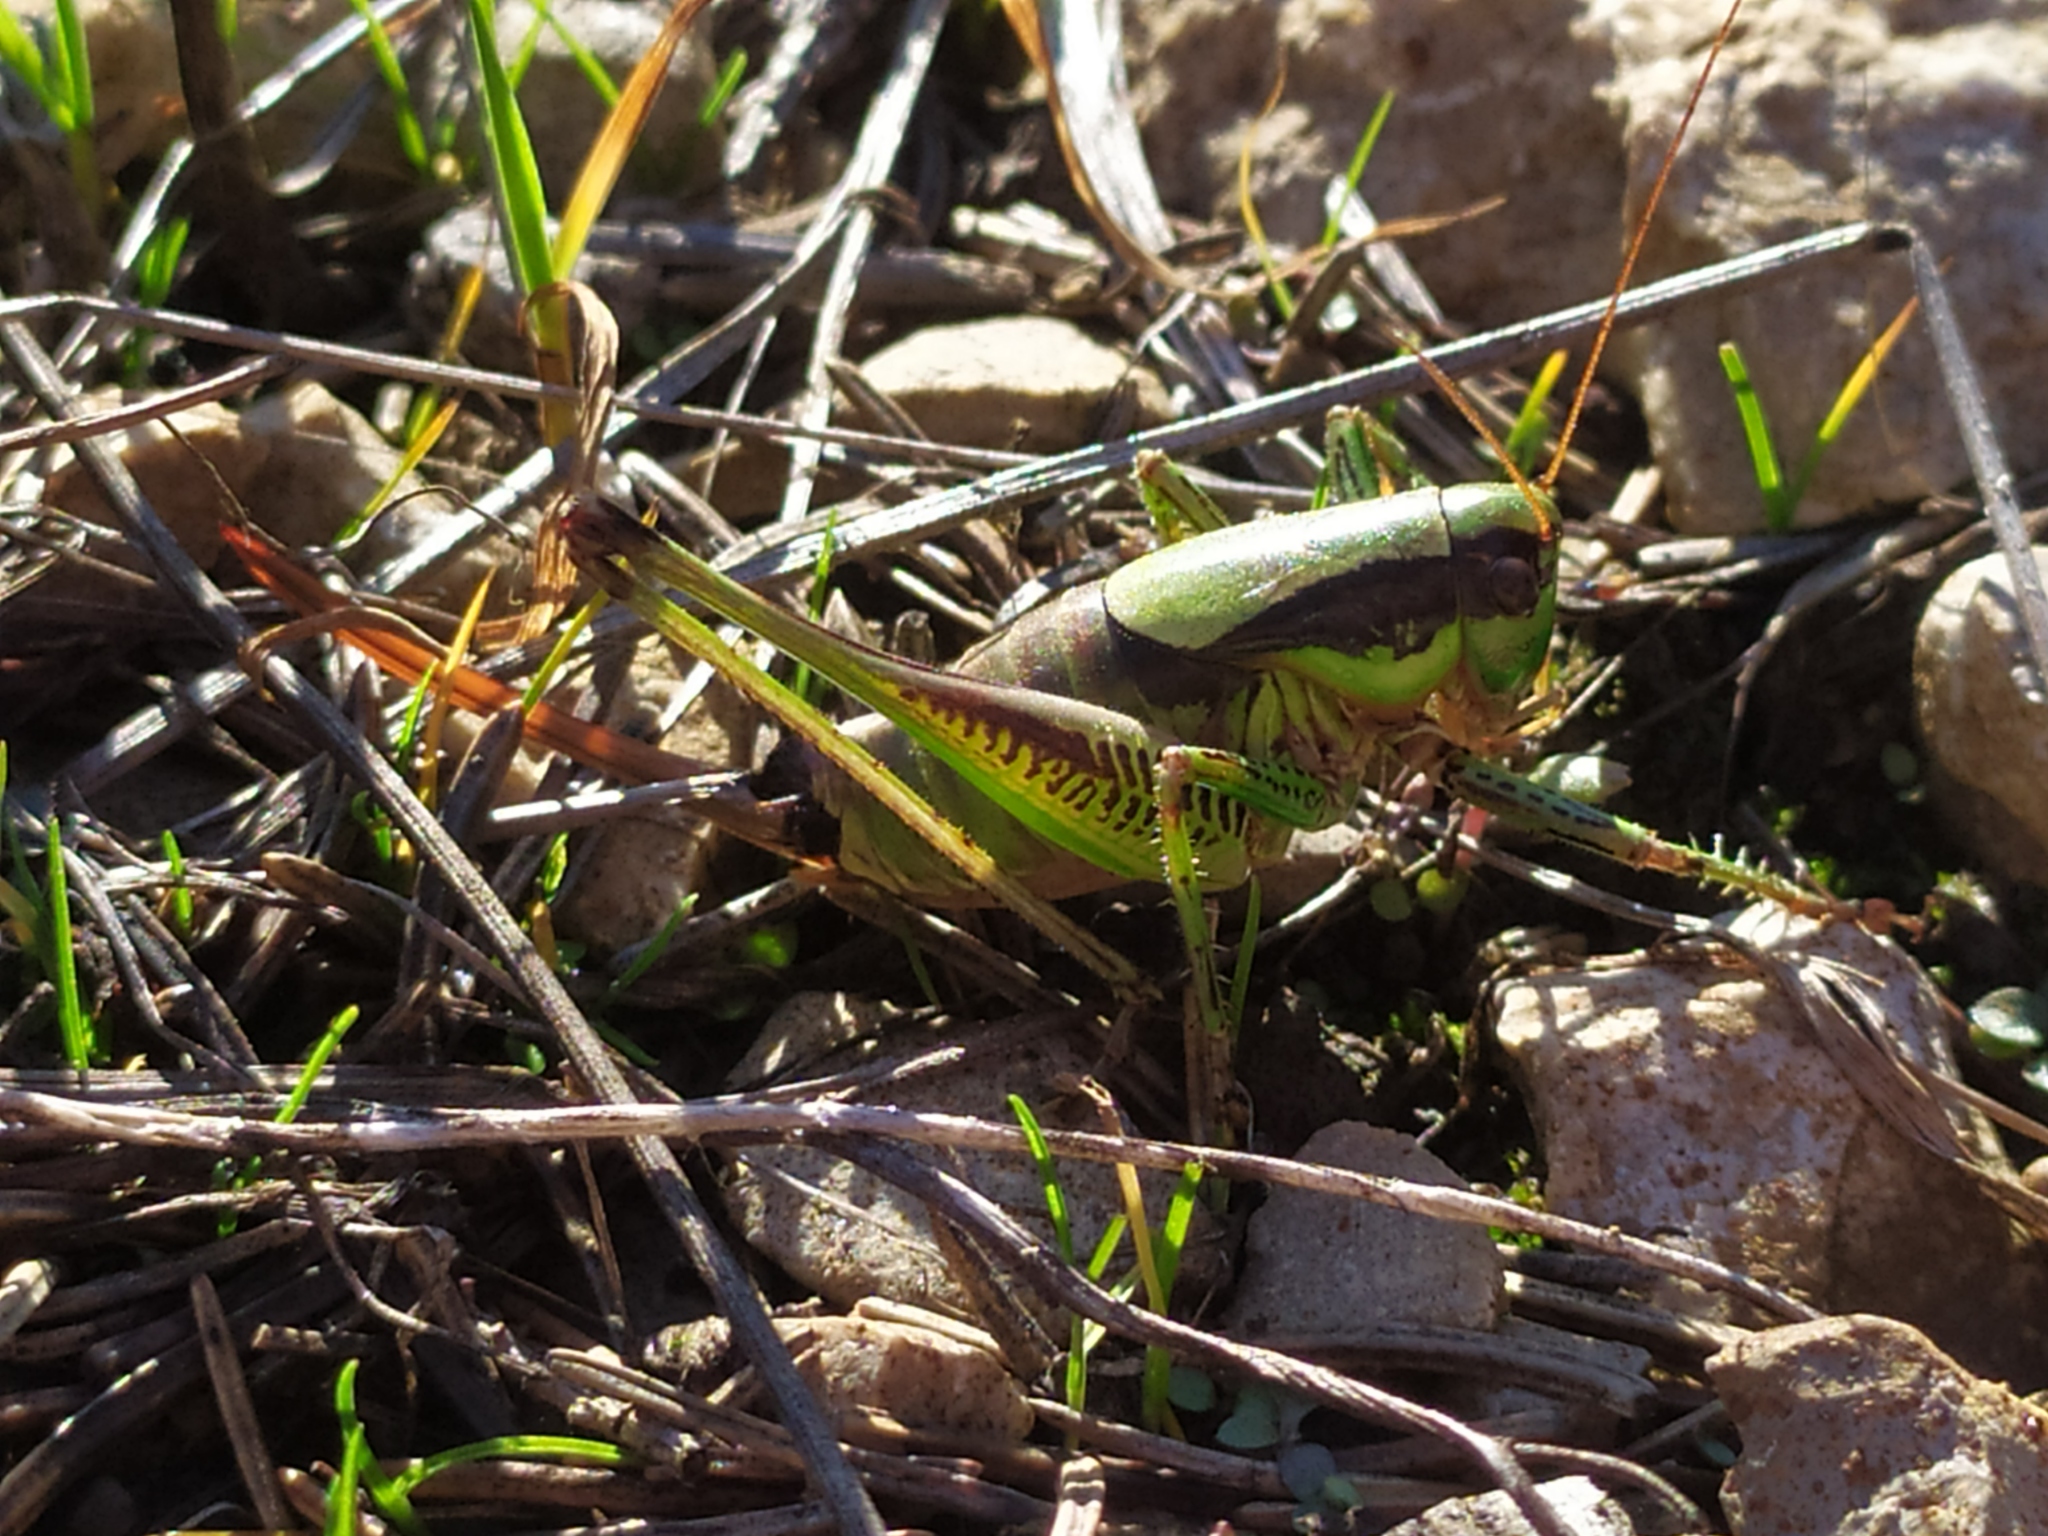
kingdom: Animalia
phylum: Arthropoda
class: Insecta
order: Orthoptera
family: Tettigoniidae
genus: Eupholidoptera
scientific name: Eupholidoptera schmidti
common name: Schmidt's marbled bush-cricket
